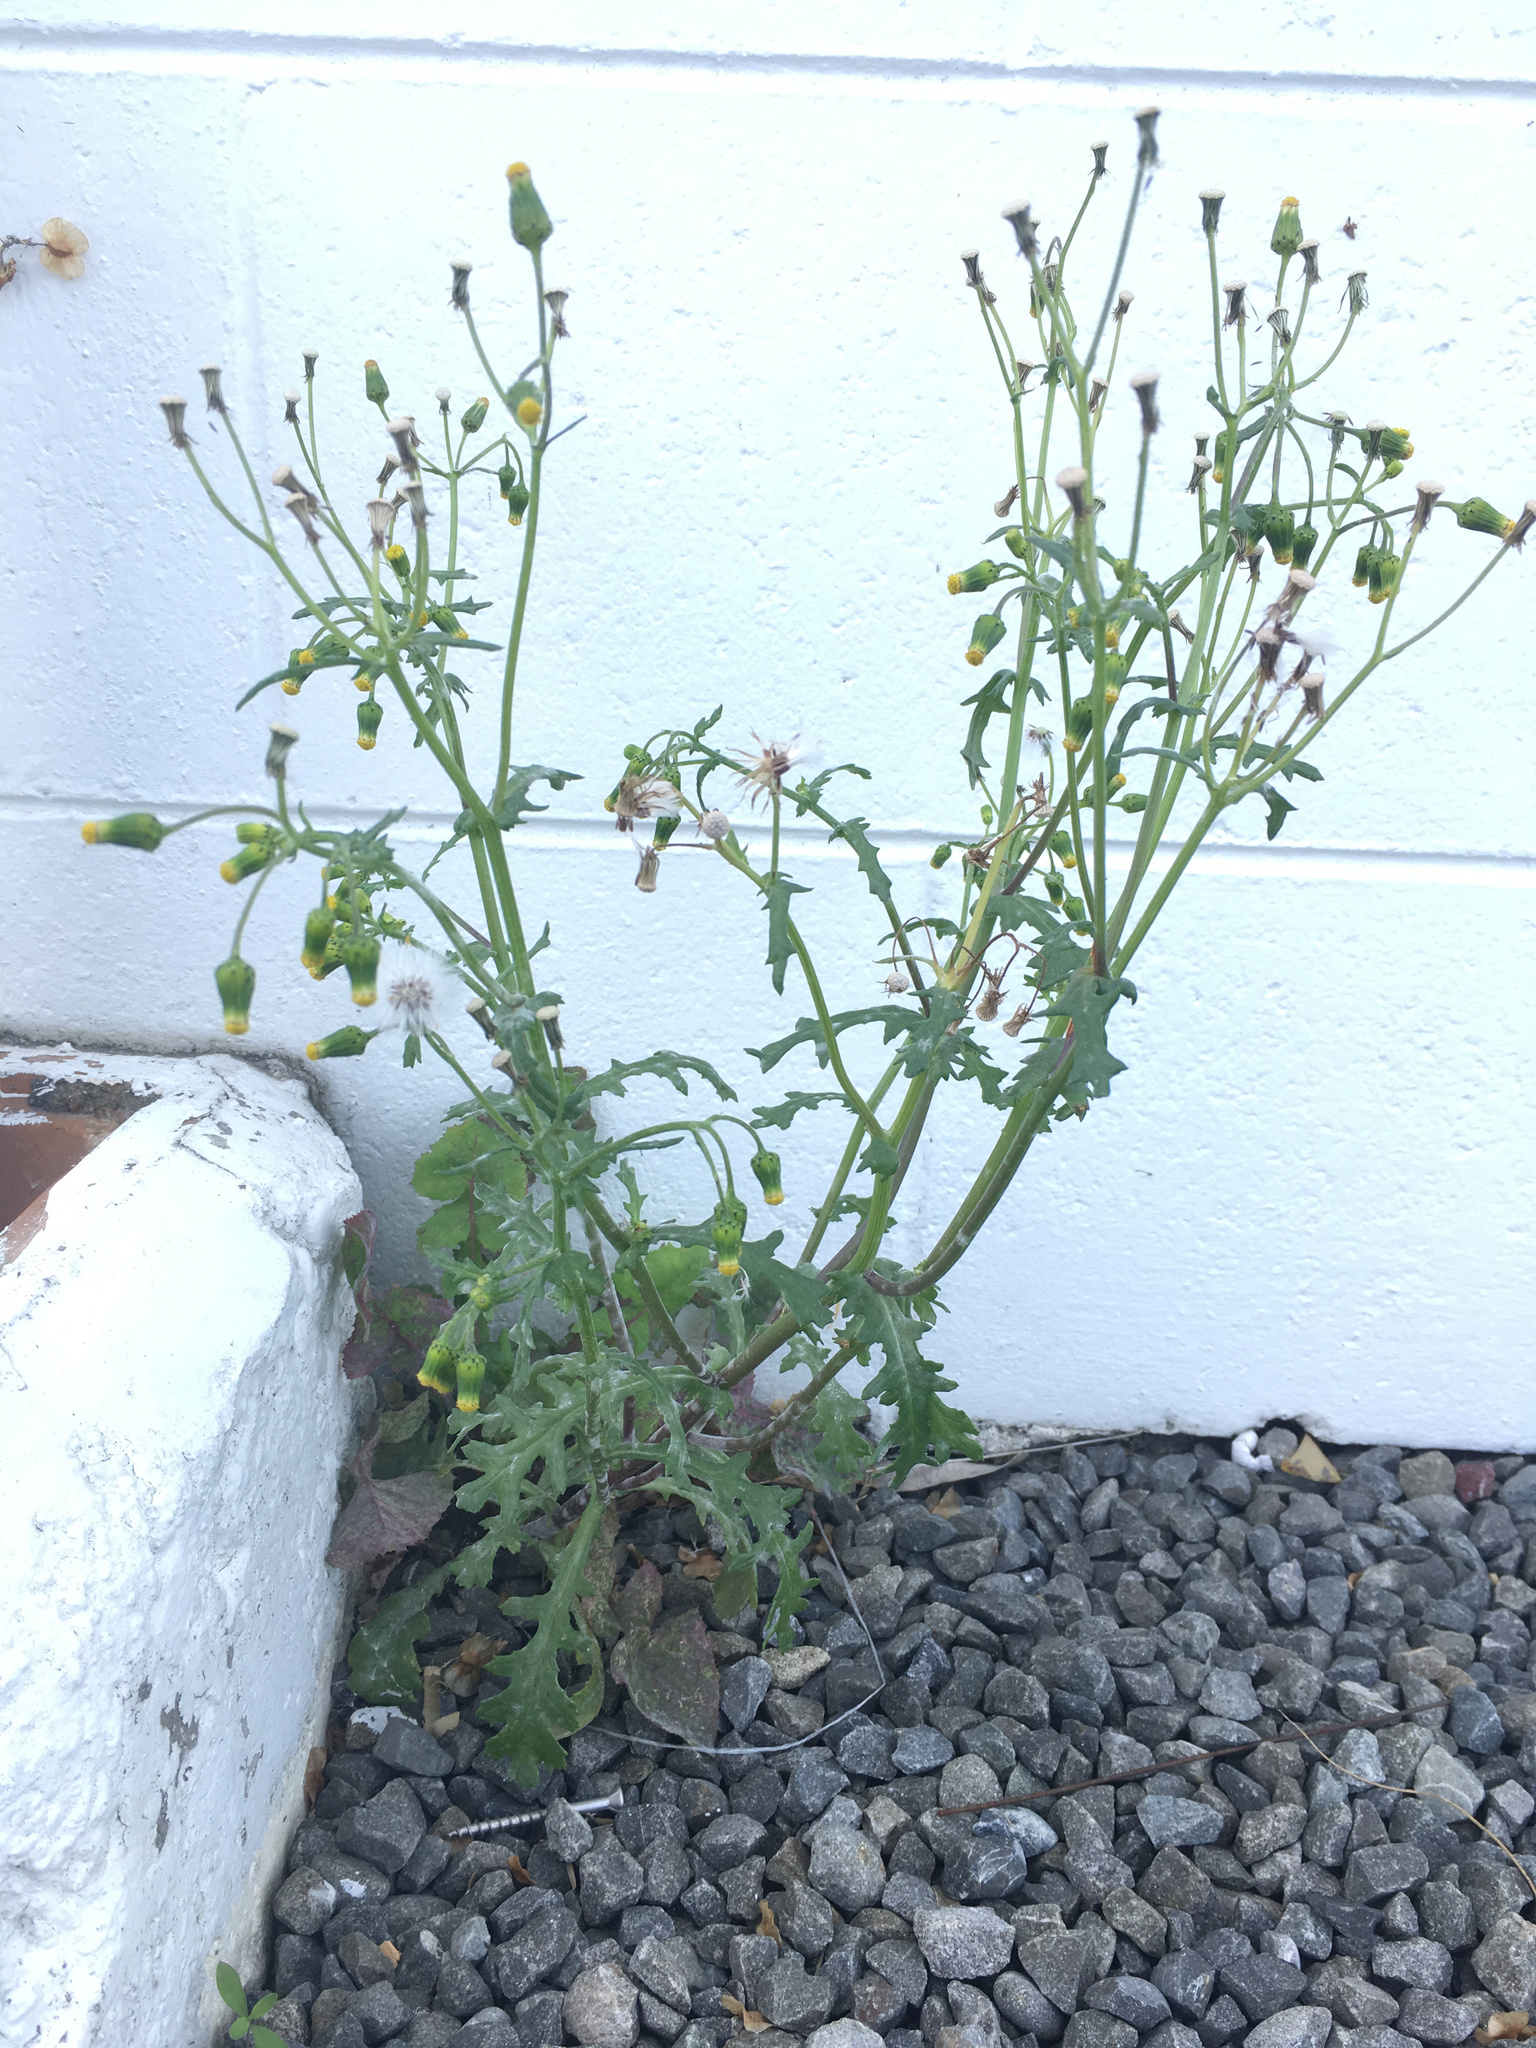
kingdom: Plantae
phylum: Tracheophyta
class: Magnoliopsida
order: Asterales
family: Asteraceae
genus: Senecio
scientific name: Senecio vulgaris
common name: Old-man-in-the-spring
